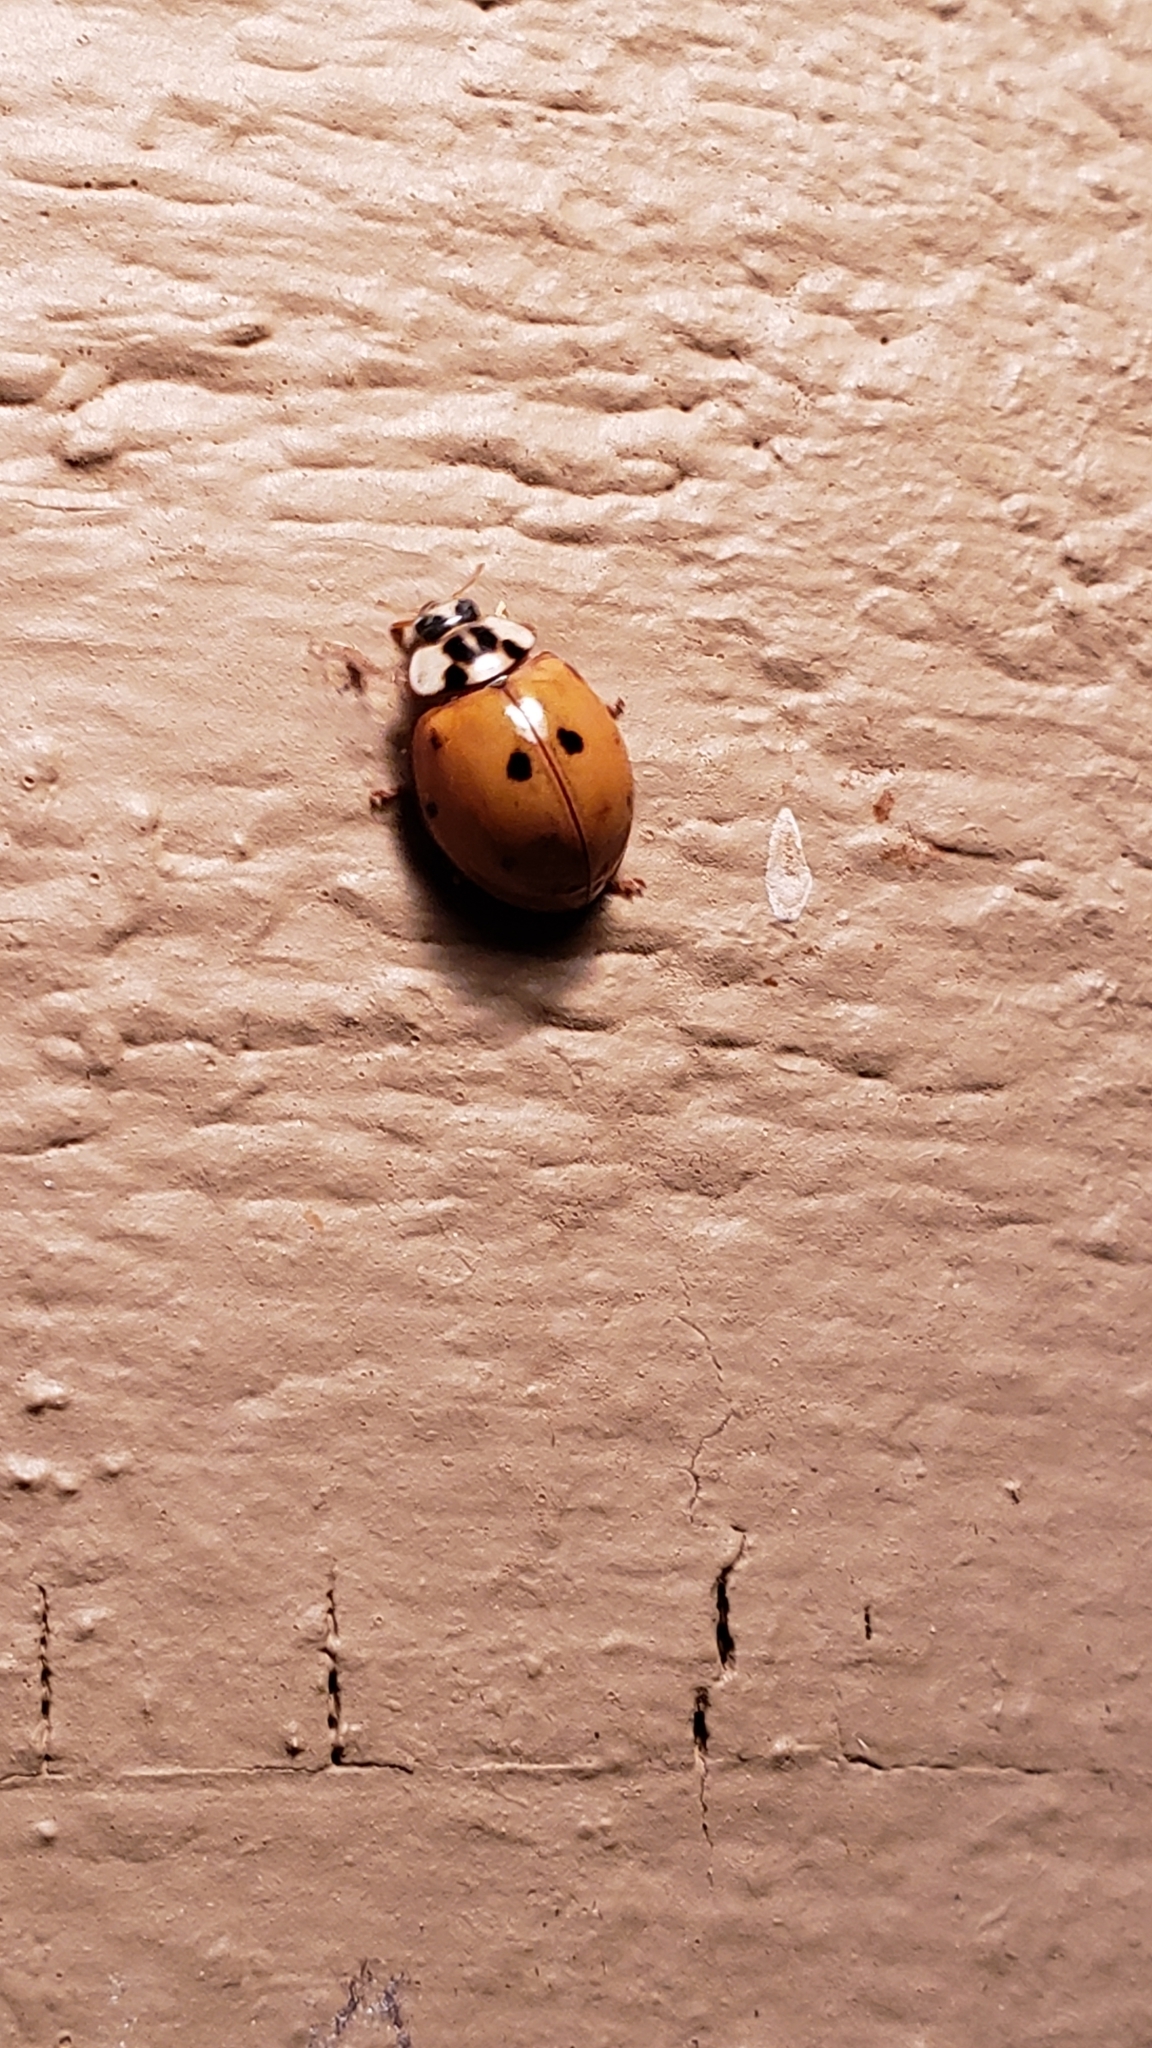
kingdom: Animalia
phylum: Arthropoda
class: Insecta
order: Coleoptera
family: Coccinellidae
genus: Harmonia
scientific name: Harmonia axyridis
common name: Harlequin ladybird
